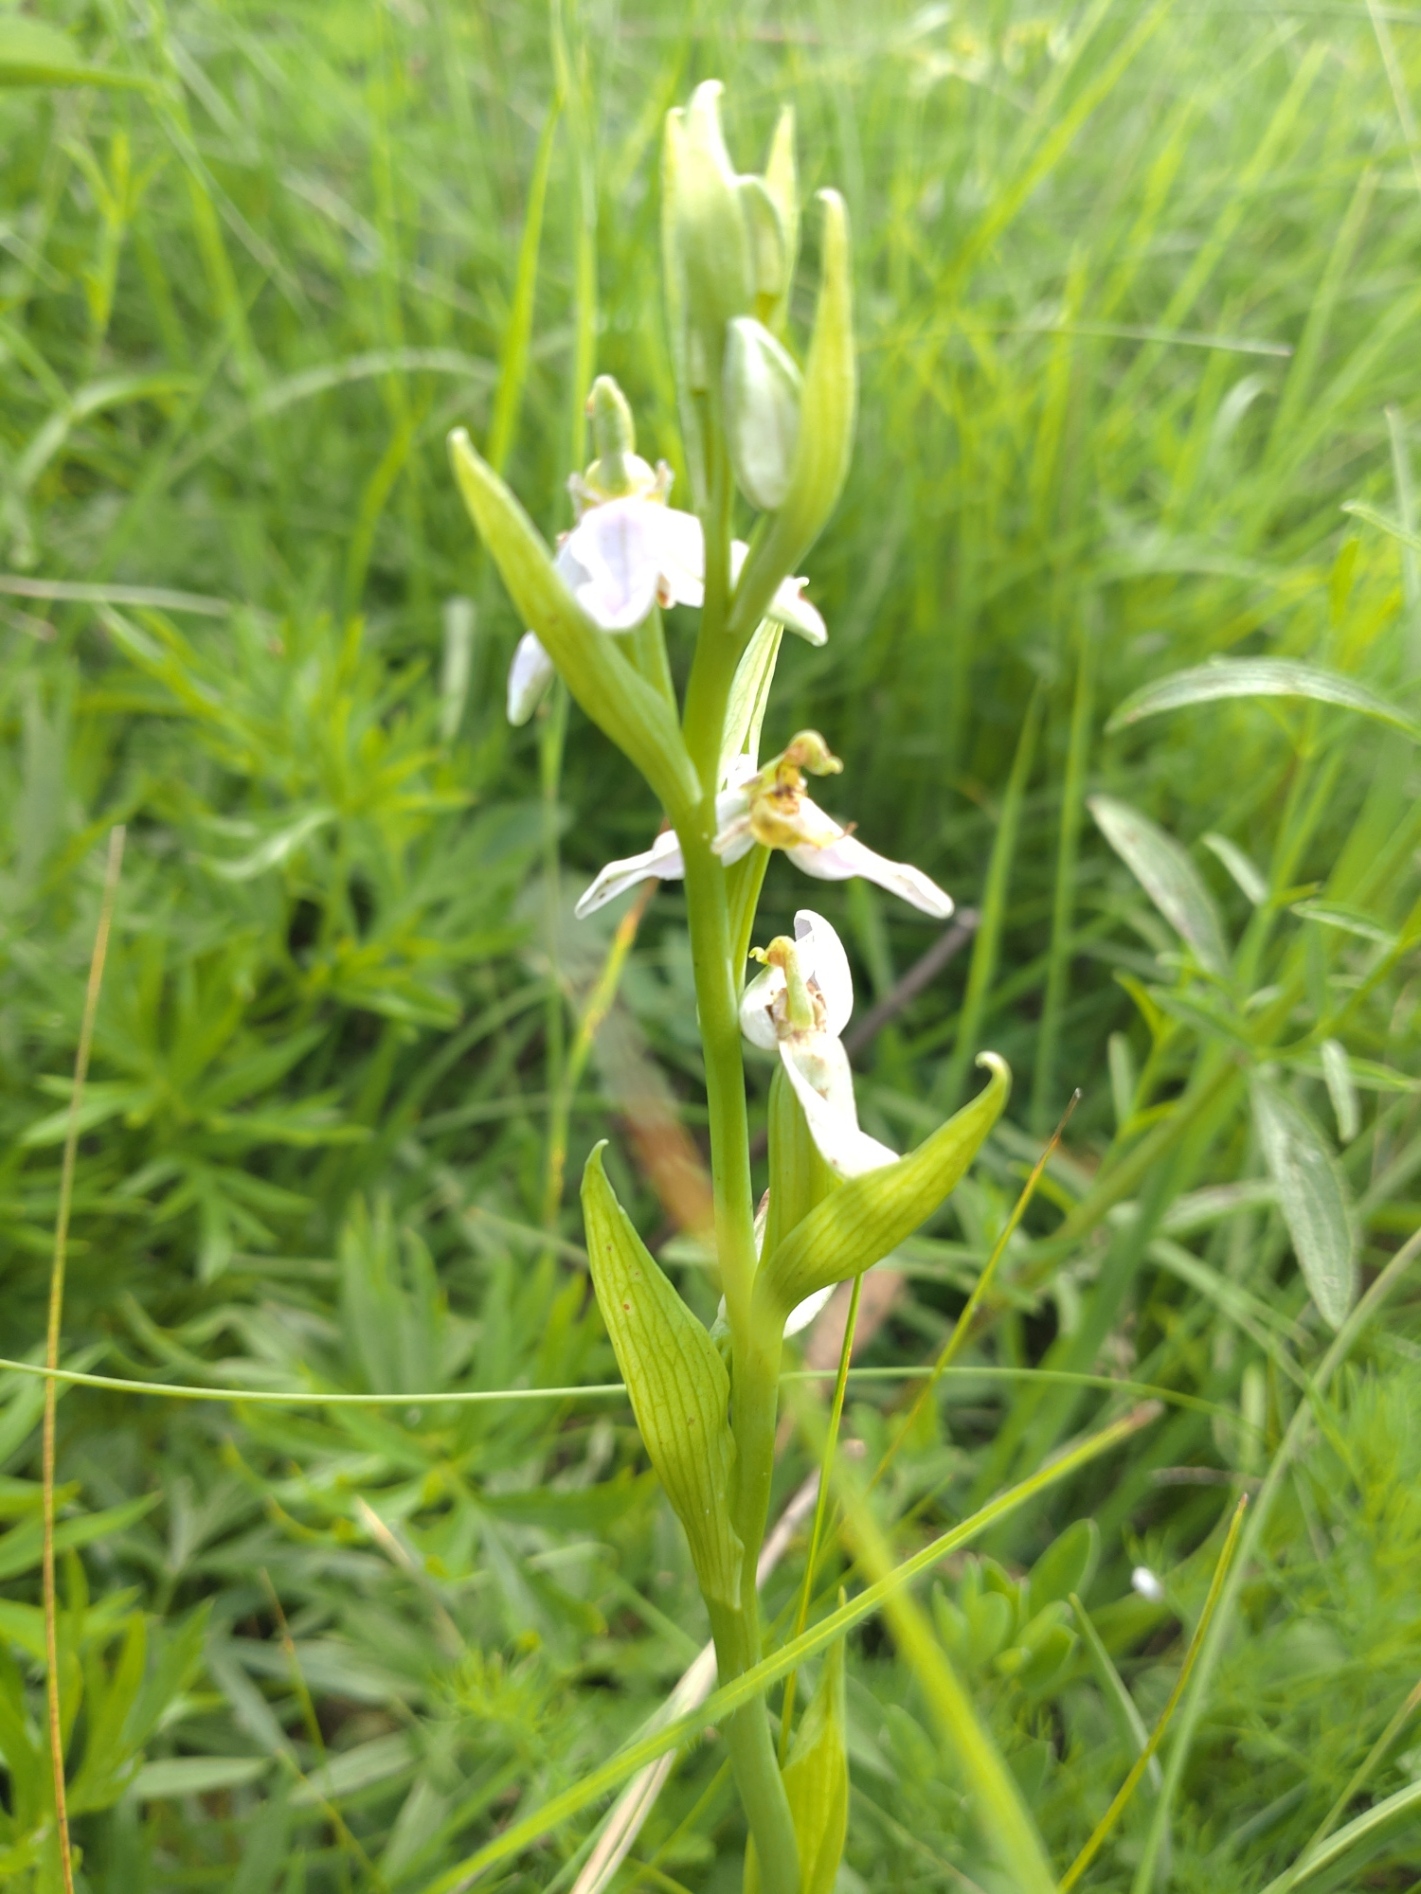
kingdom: Plantae
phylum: Tracheophyta
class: Liliopsida
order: Asparagales
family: Orchidaceae
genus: Ophrys
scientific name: Ophrys apifera
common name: Bee orchid
